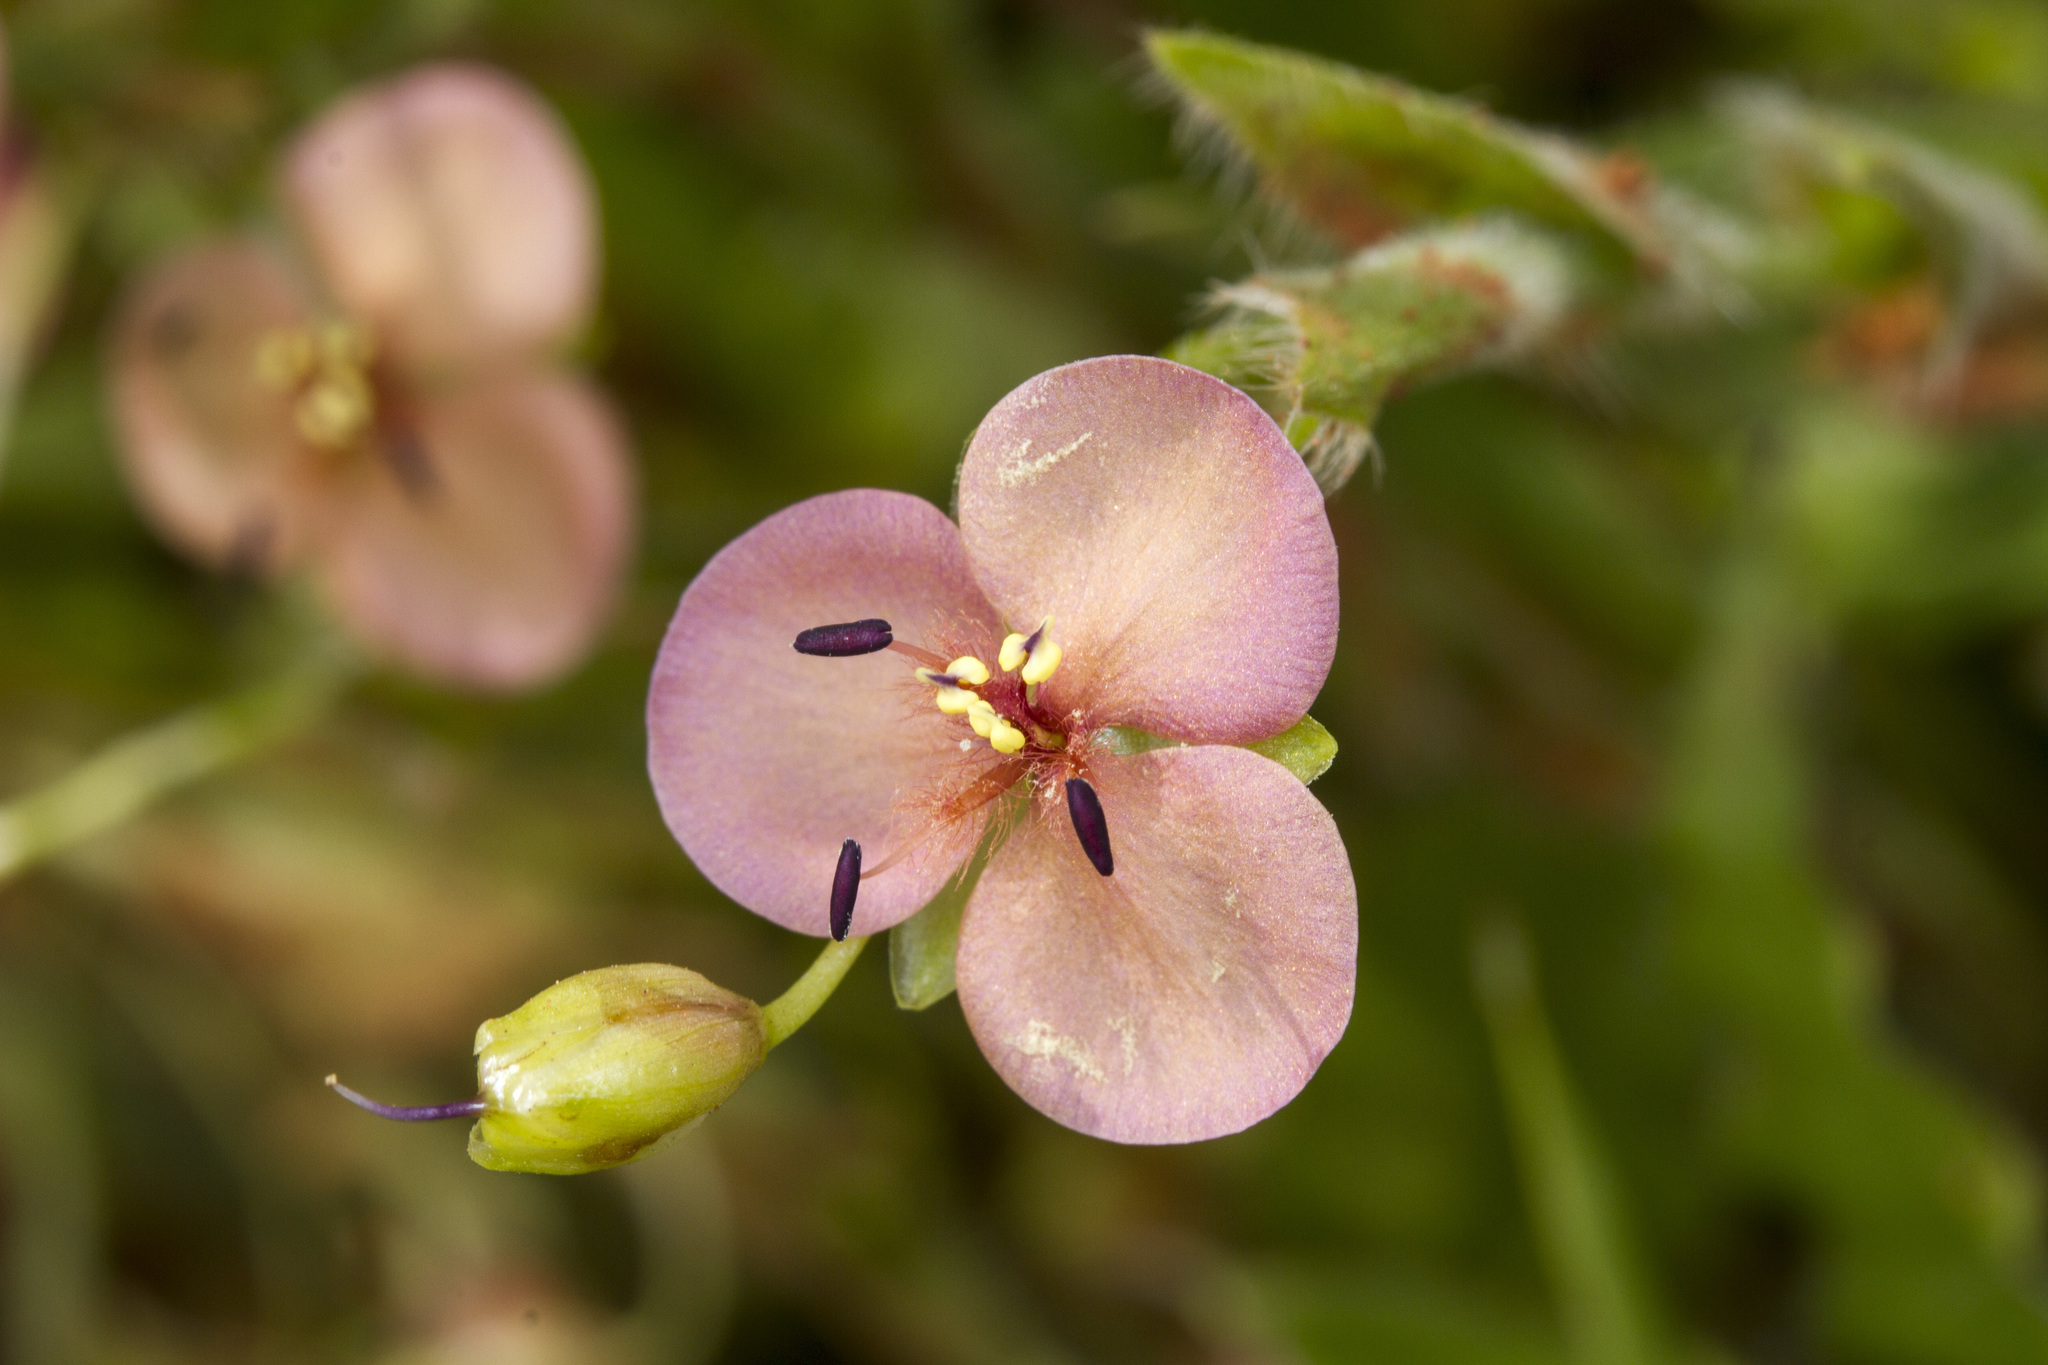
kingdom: Plantae
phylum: Tracheophyta
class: Liliopsida
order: Commelinales
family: Commelinaceae
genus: Murdannia
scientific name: Murdannia lanuginosa
